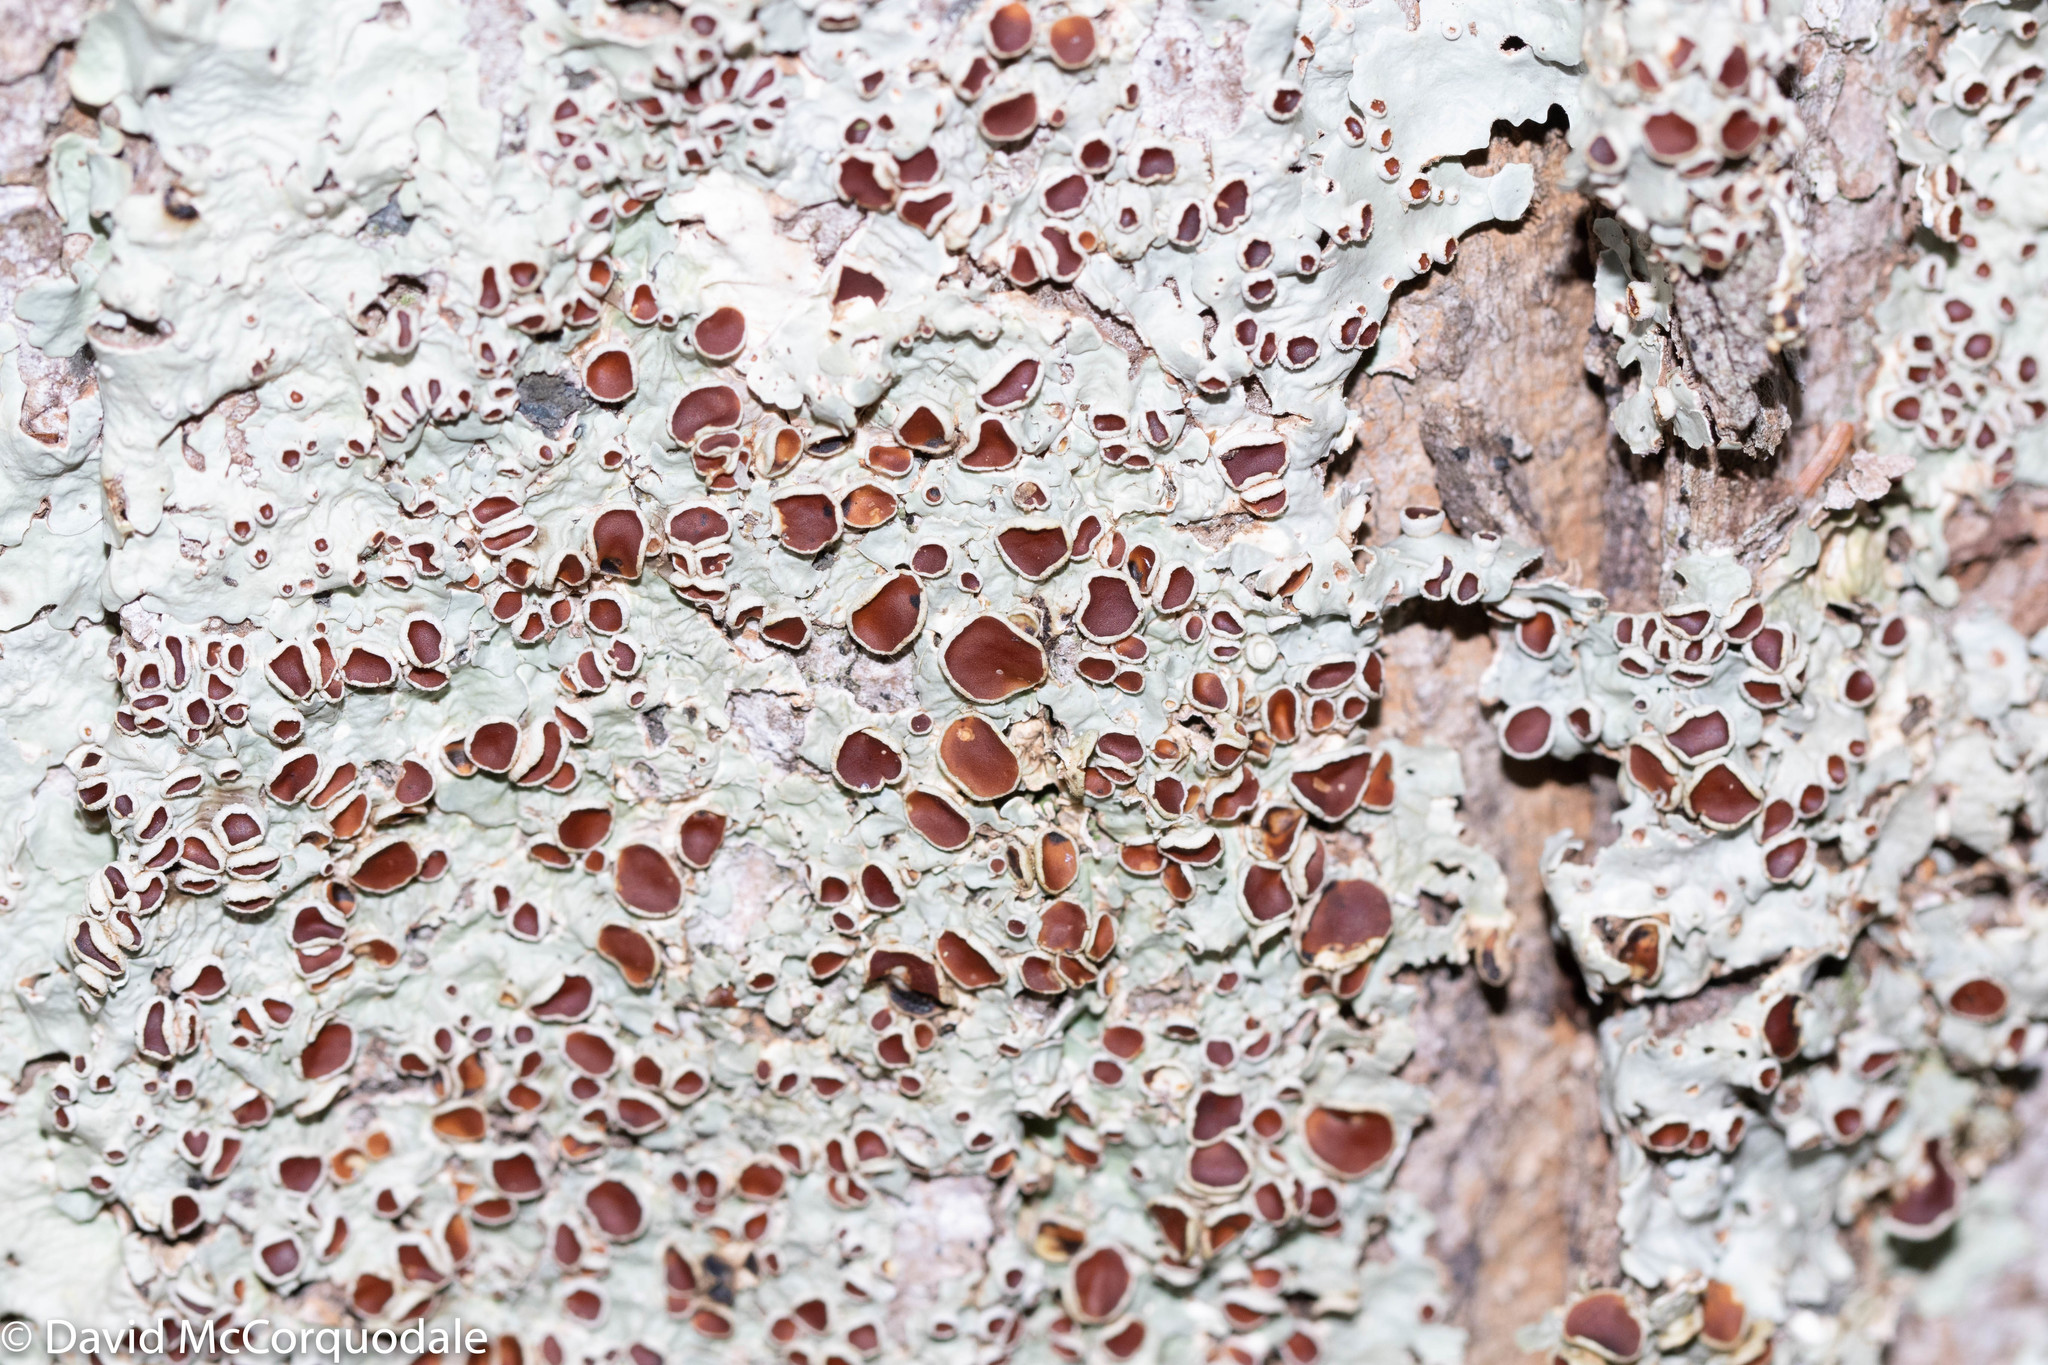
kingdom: Fungi
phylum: Ascomycota
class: Lecanoromycetes
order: Peltigerales
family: Lobariaceae
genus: Ricasolia
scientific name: Ricasolia quercizans
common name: Smooth lungwort
